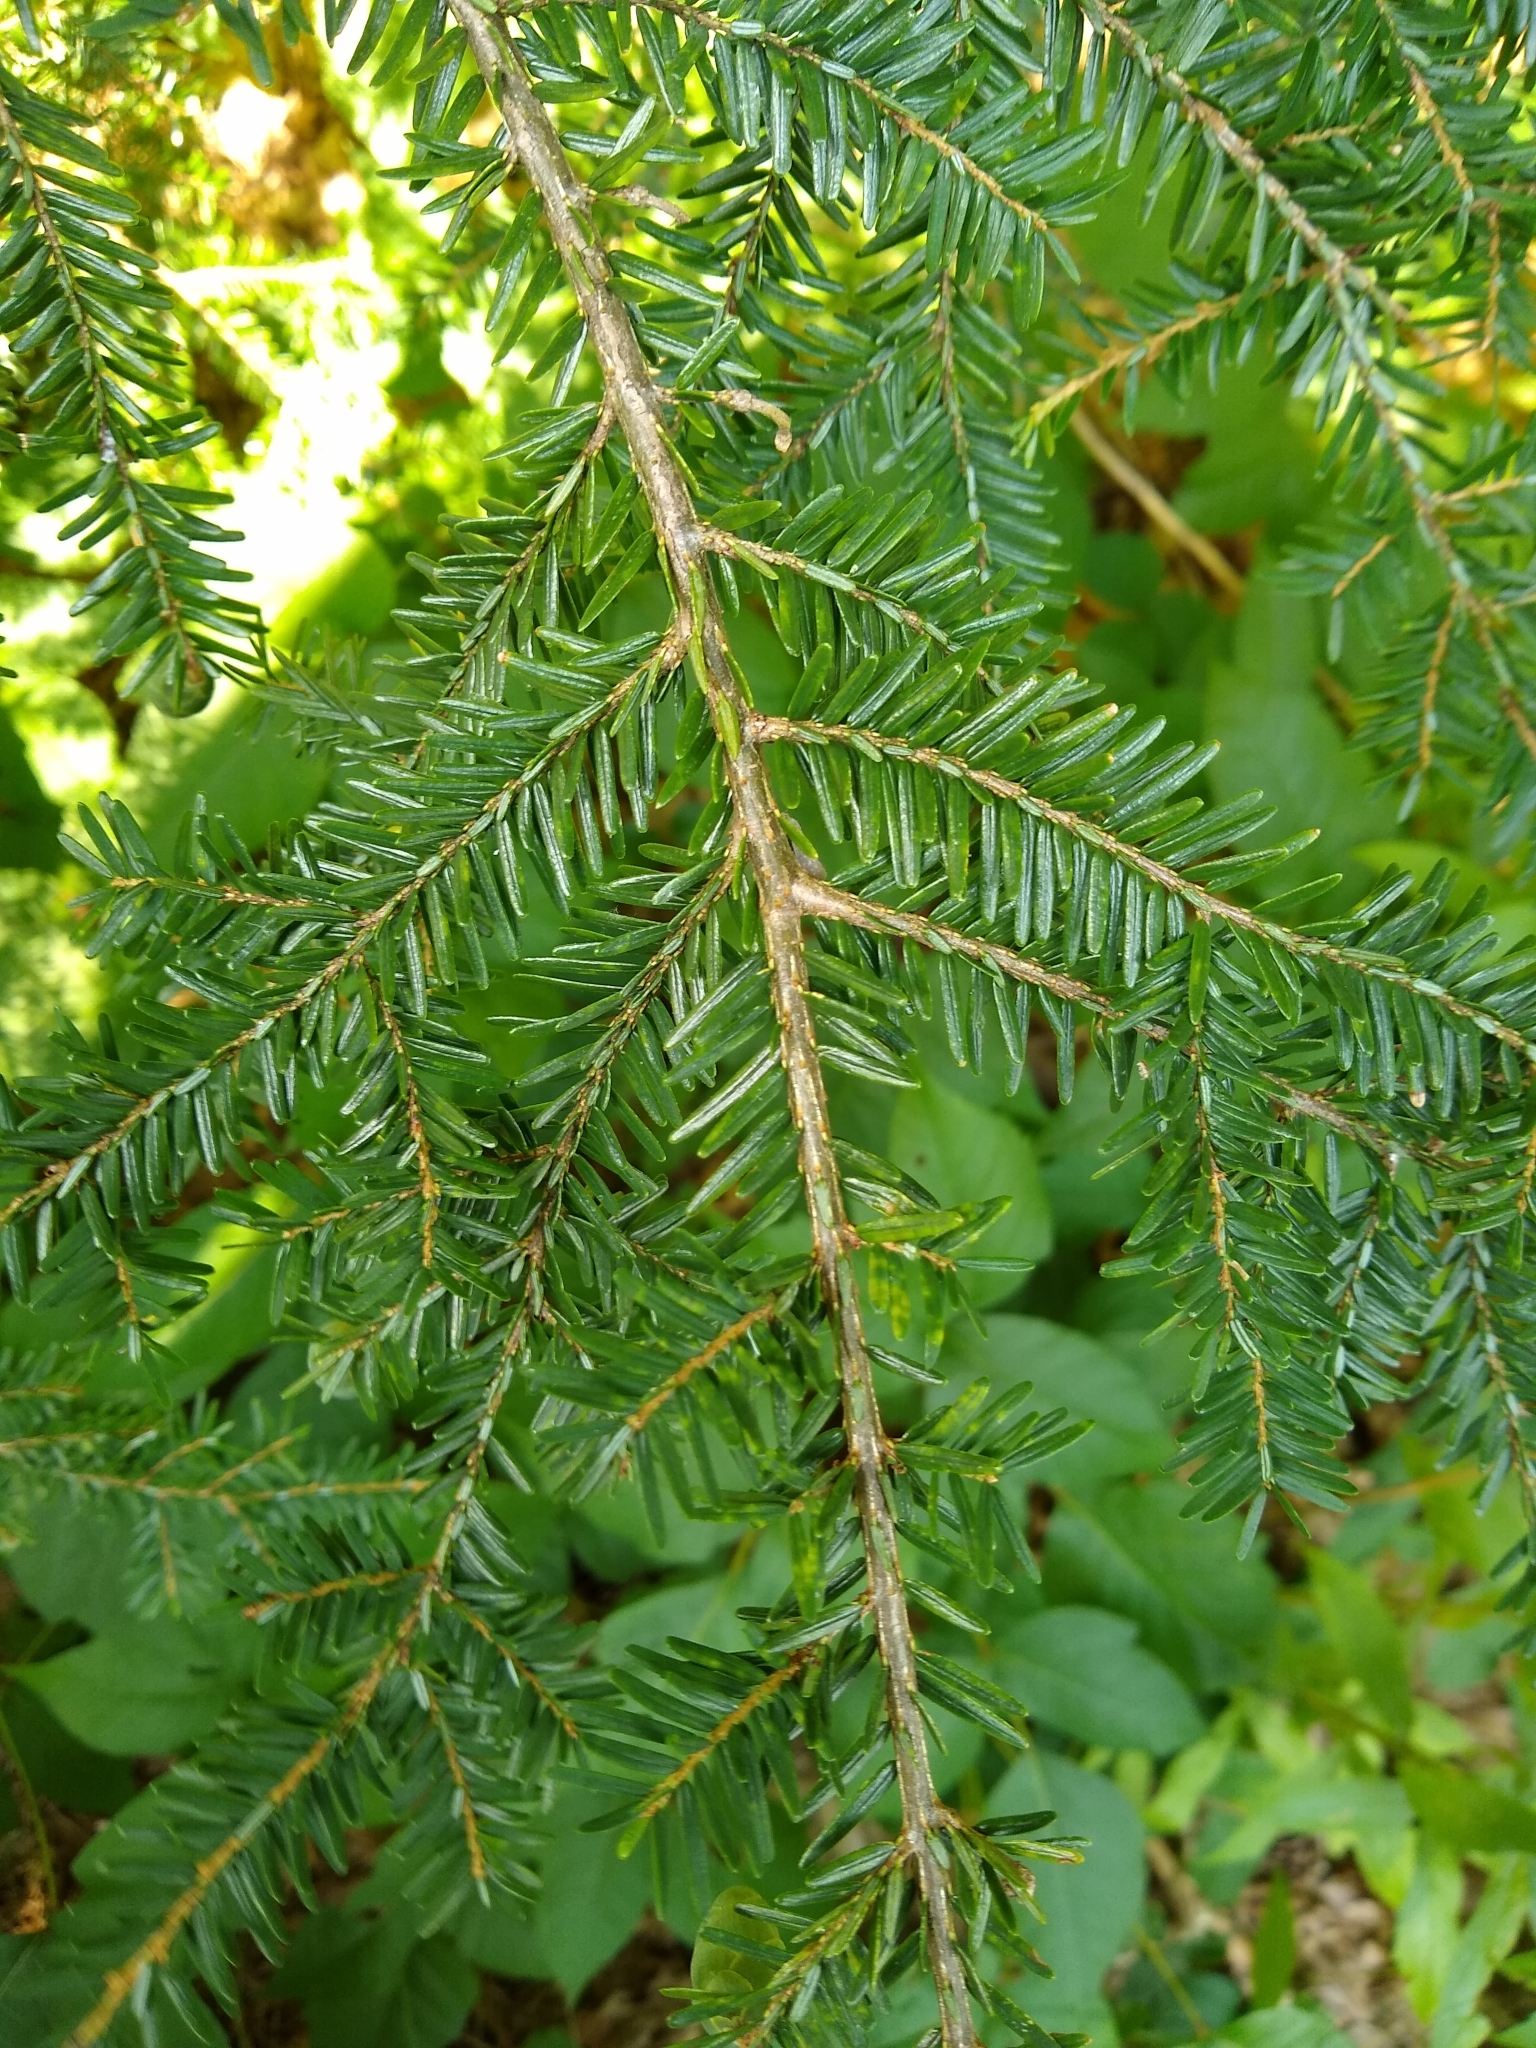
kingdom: Plantae
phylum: Tracheophyta
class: Pinopsida
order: Pinales
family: Pinaceae
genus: Tsuga
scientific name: Tsuga canadensis
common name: Eastern hemlock
